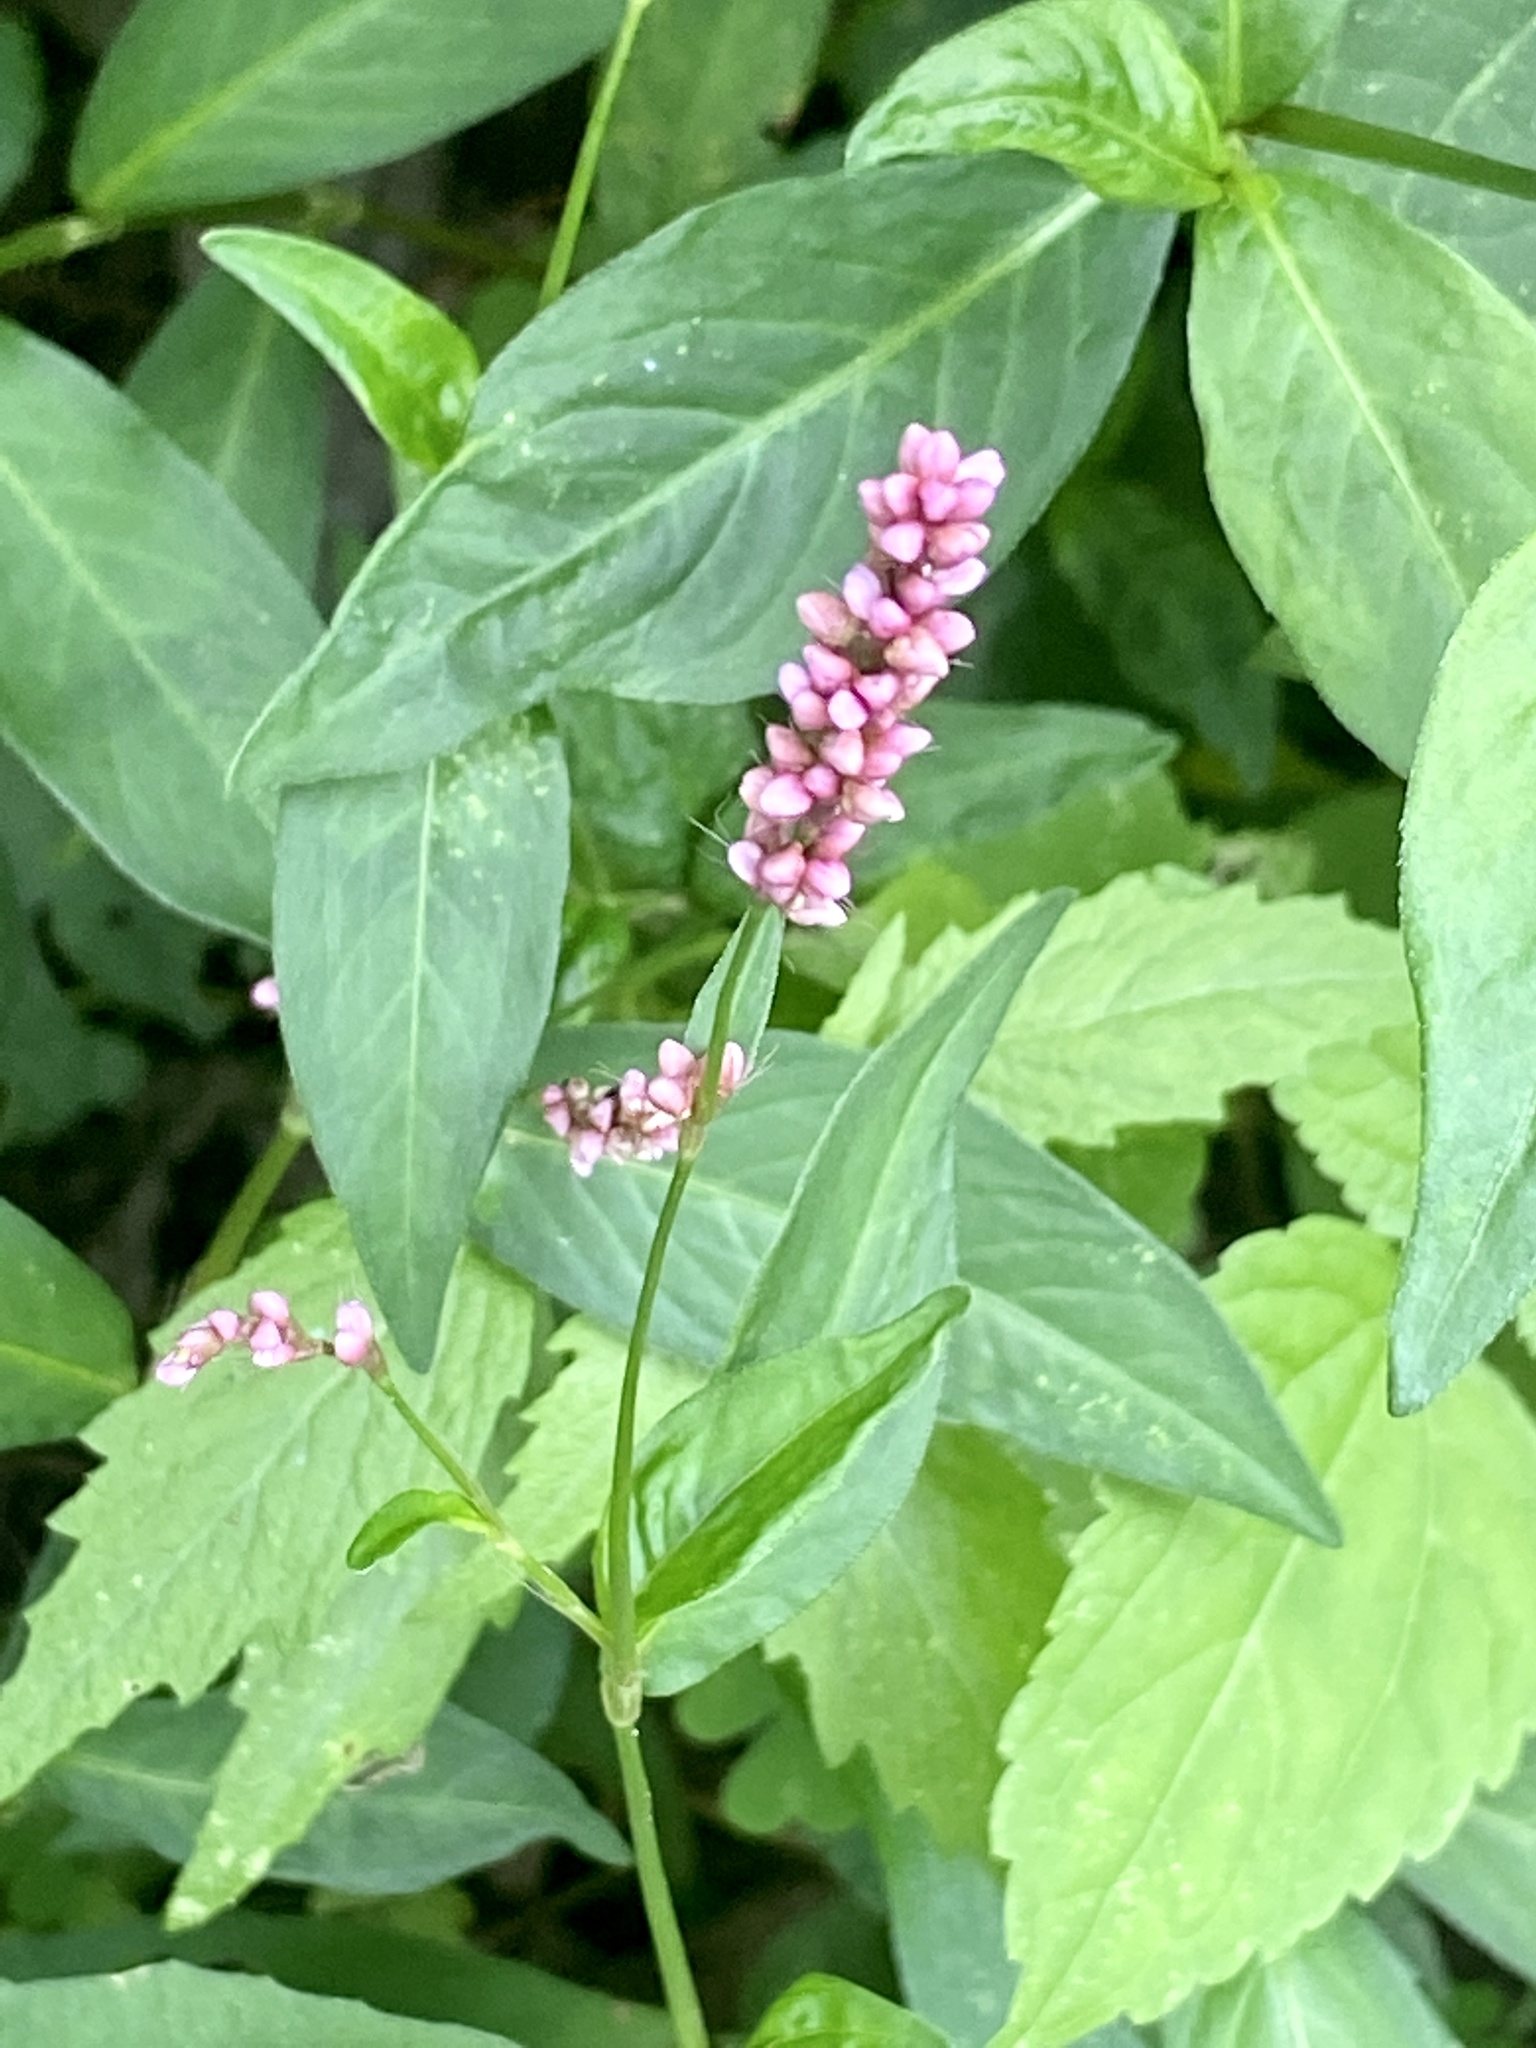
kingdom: Plantae
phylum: Tracheophyta
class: Magnoliopsida
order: Caryophyllales
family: Polygonaceae
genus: Persicaria
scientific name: Persicaria longiseta
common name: Bristly lady's-thumb
